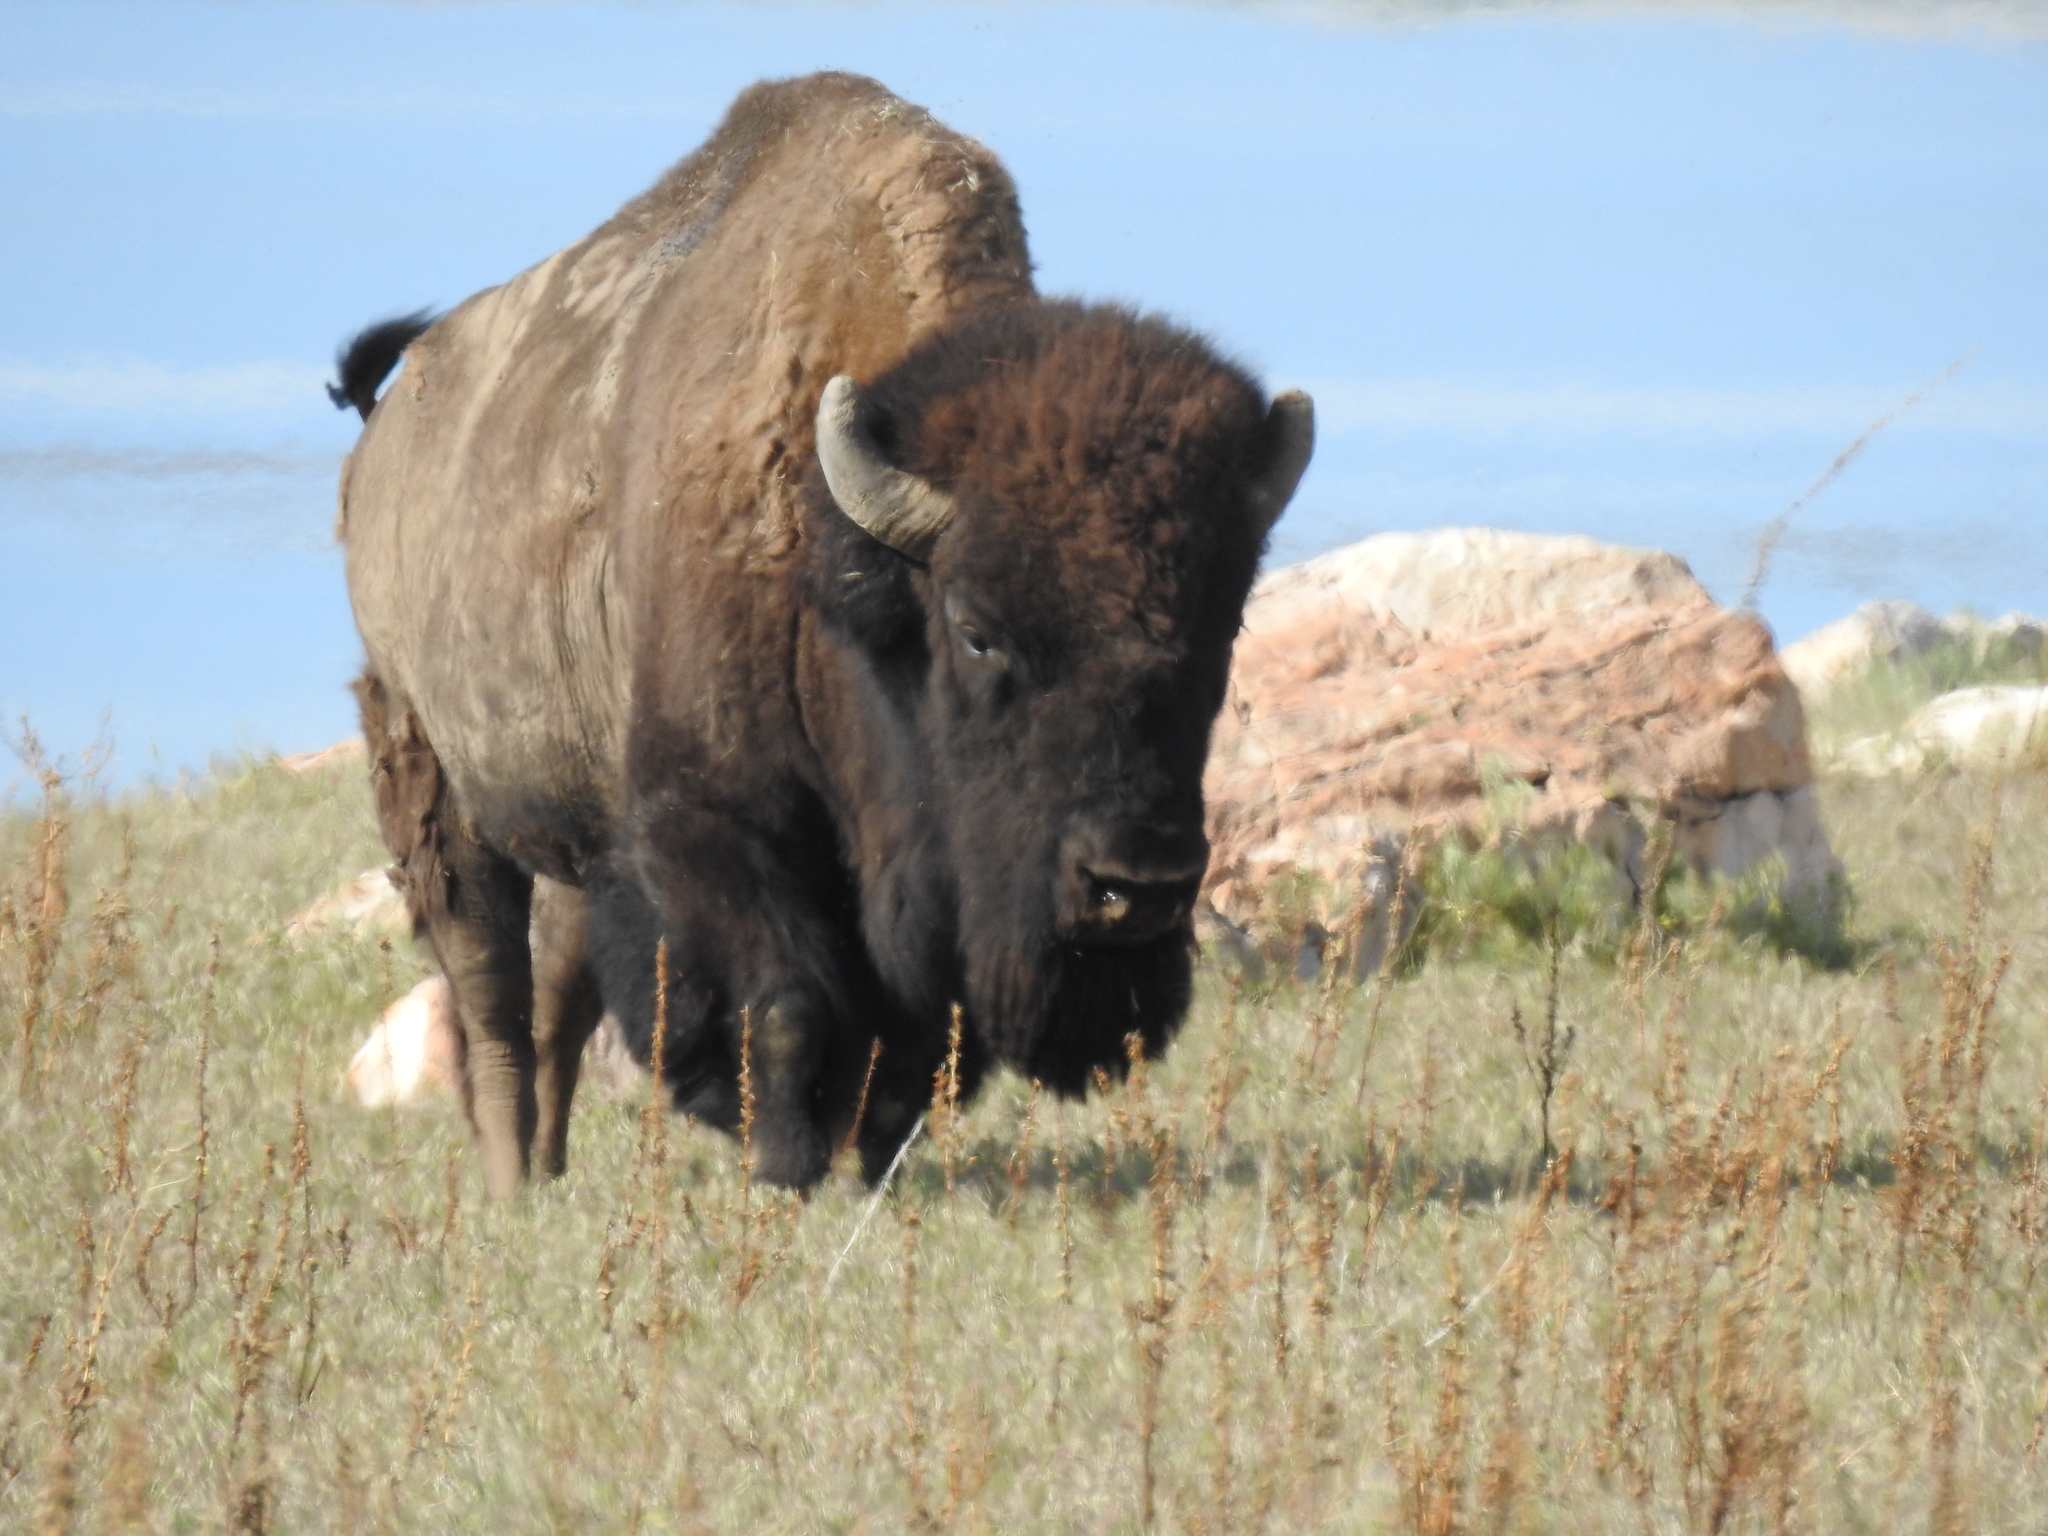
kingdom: Animalia
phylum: Chordata
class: Mammalia
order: Artiodactyla
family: Bovidae
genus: Bison
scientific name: Bison bison
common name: American bison
